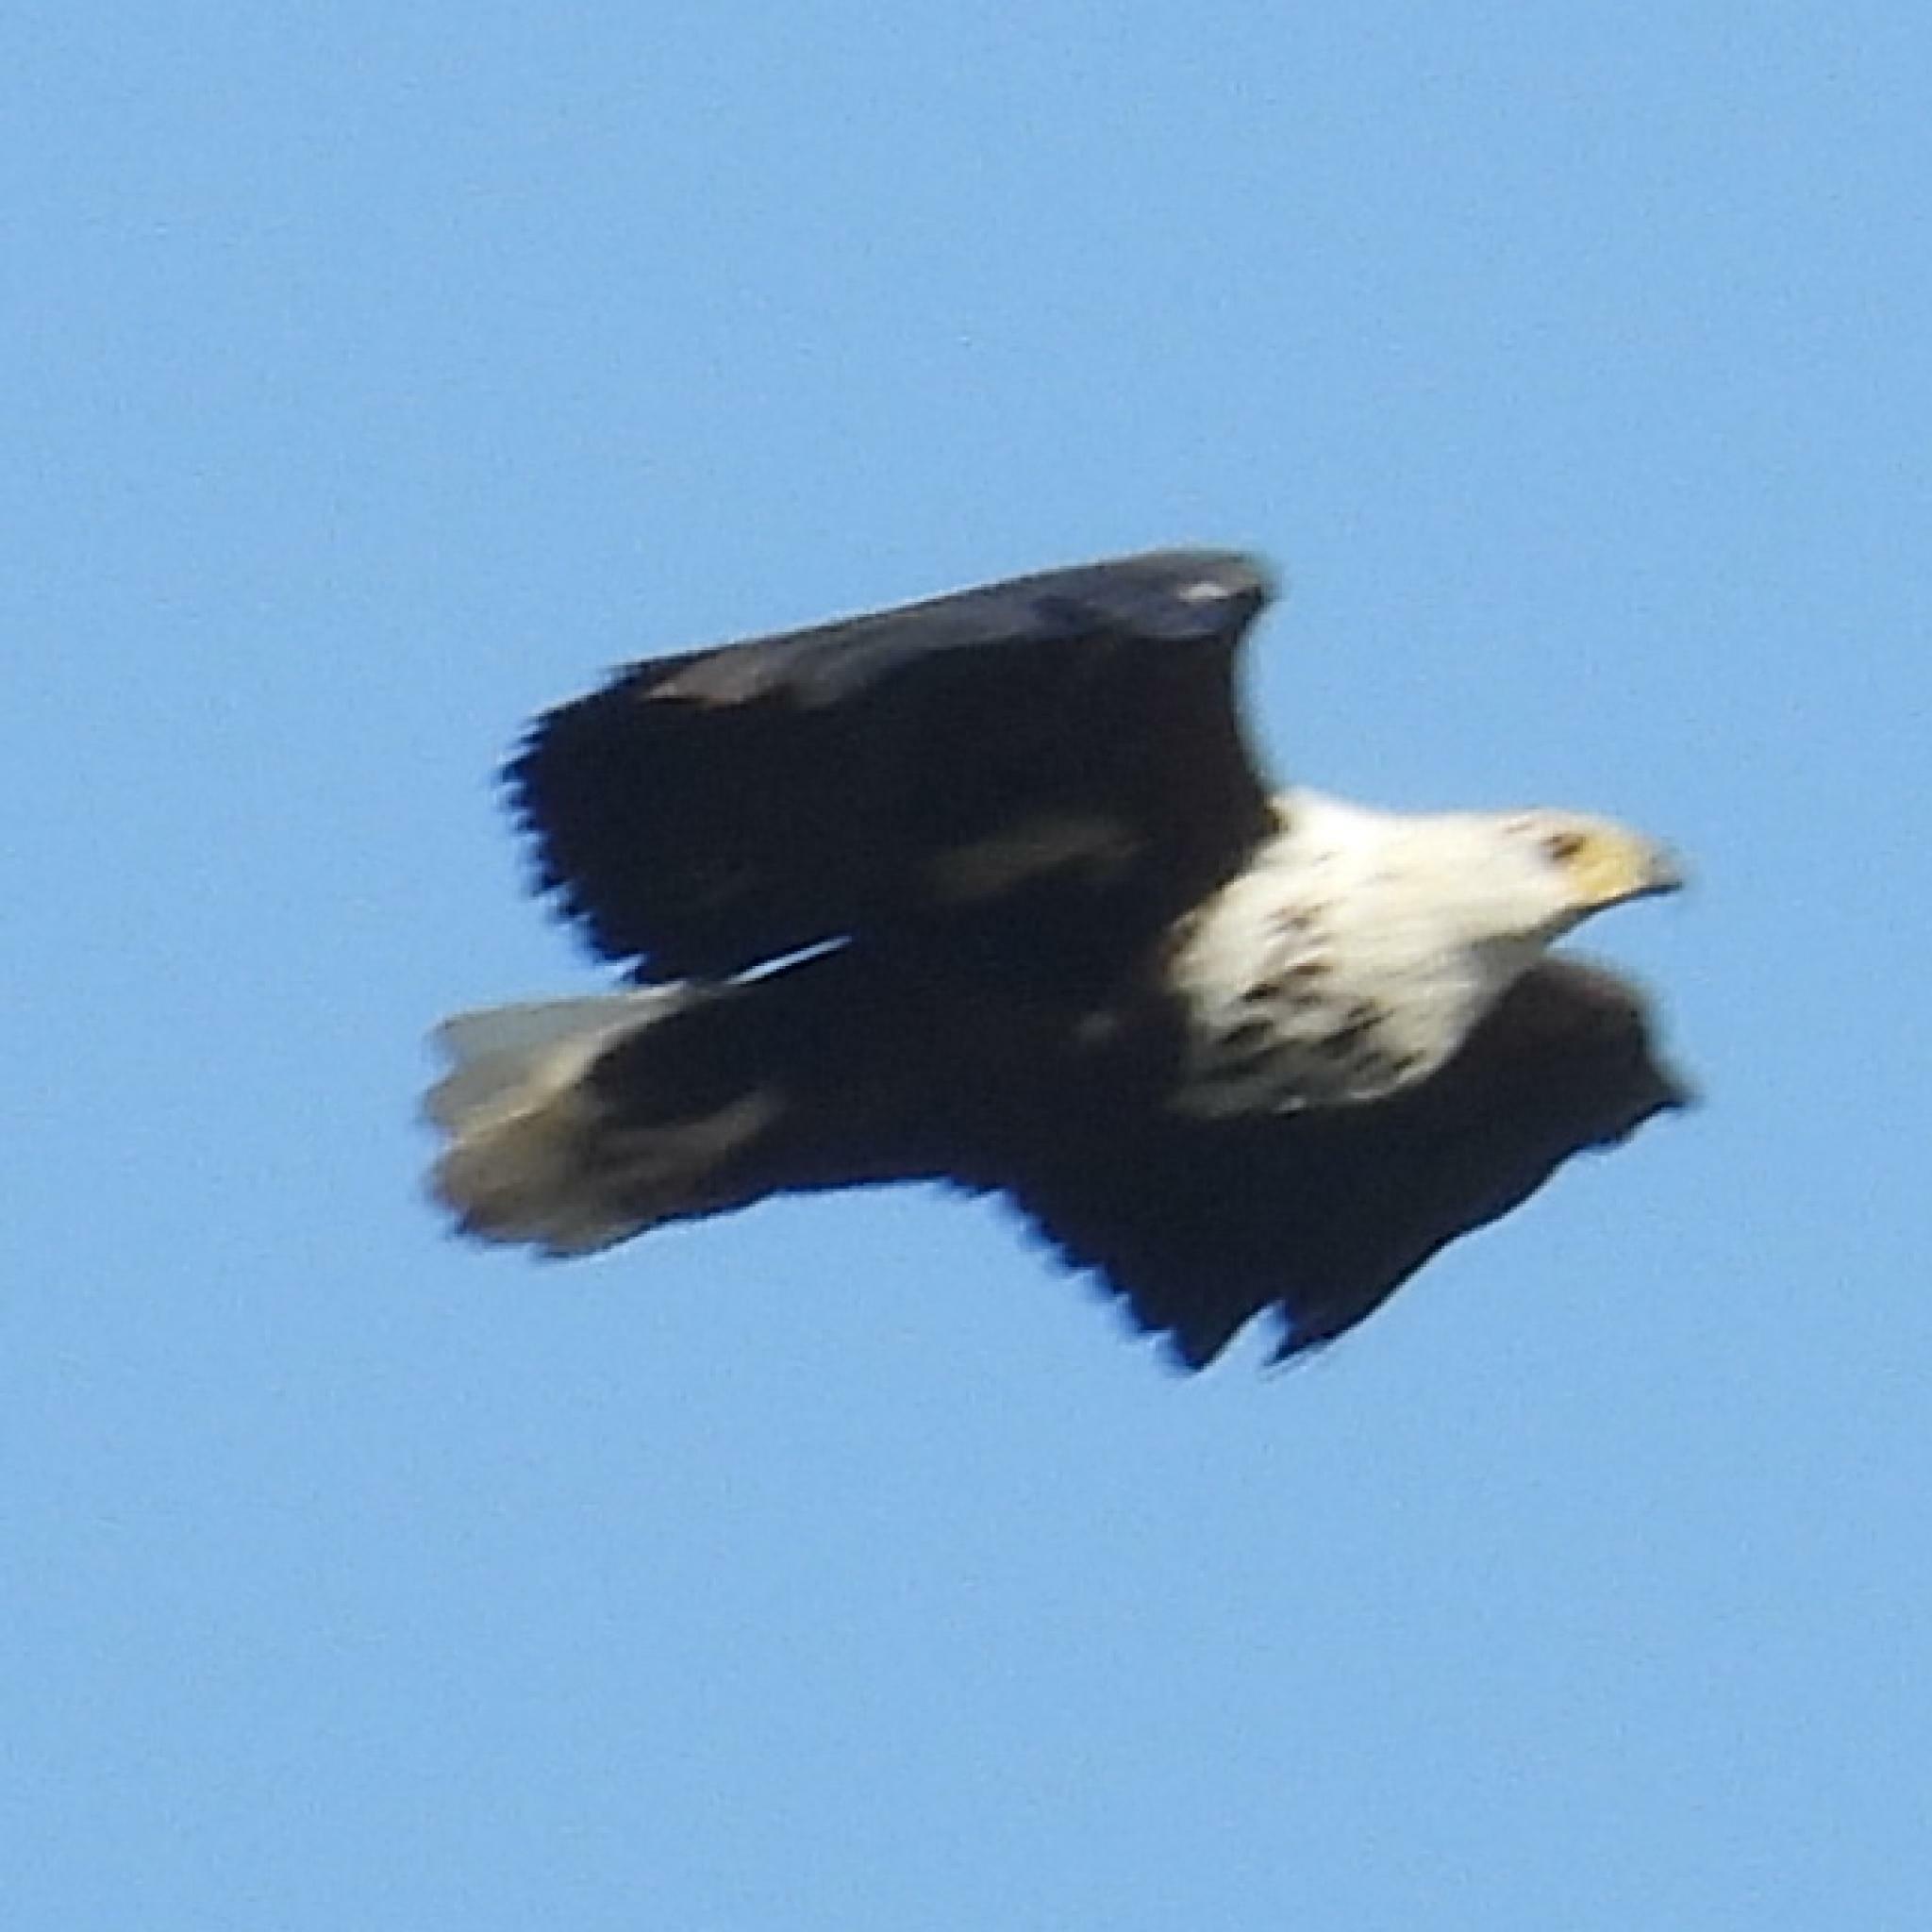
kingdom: Animalia
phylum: Chordata
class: Aves
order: Accipitriformes
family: Accipitridae
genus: Haliaeetus
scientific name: Haliaeetus vocifer
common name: African fish eagle
